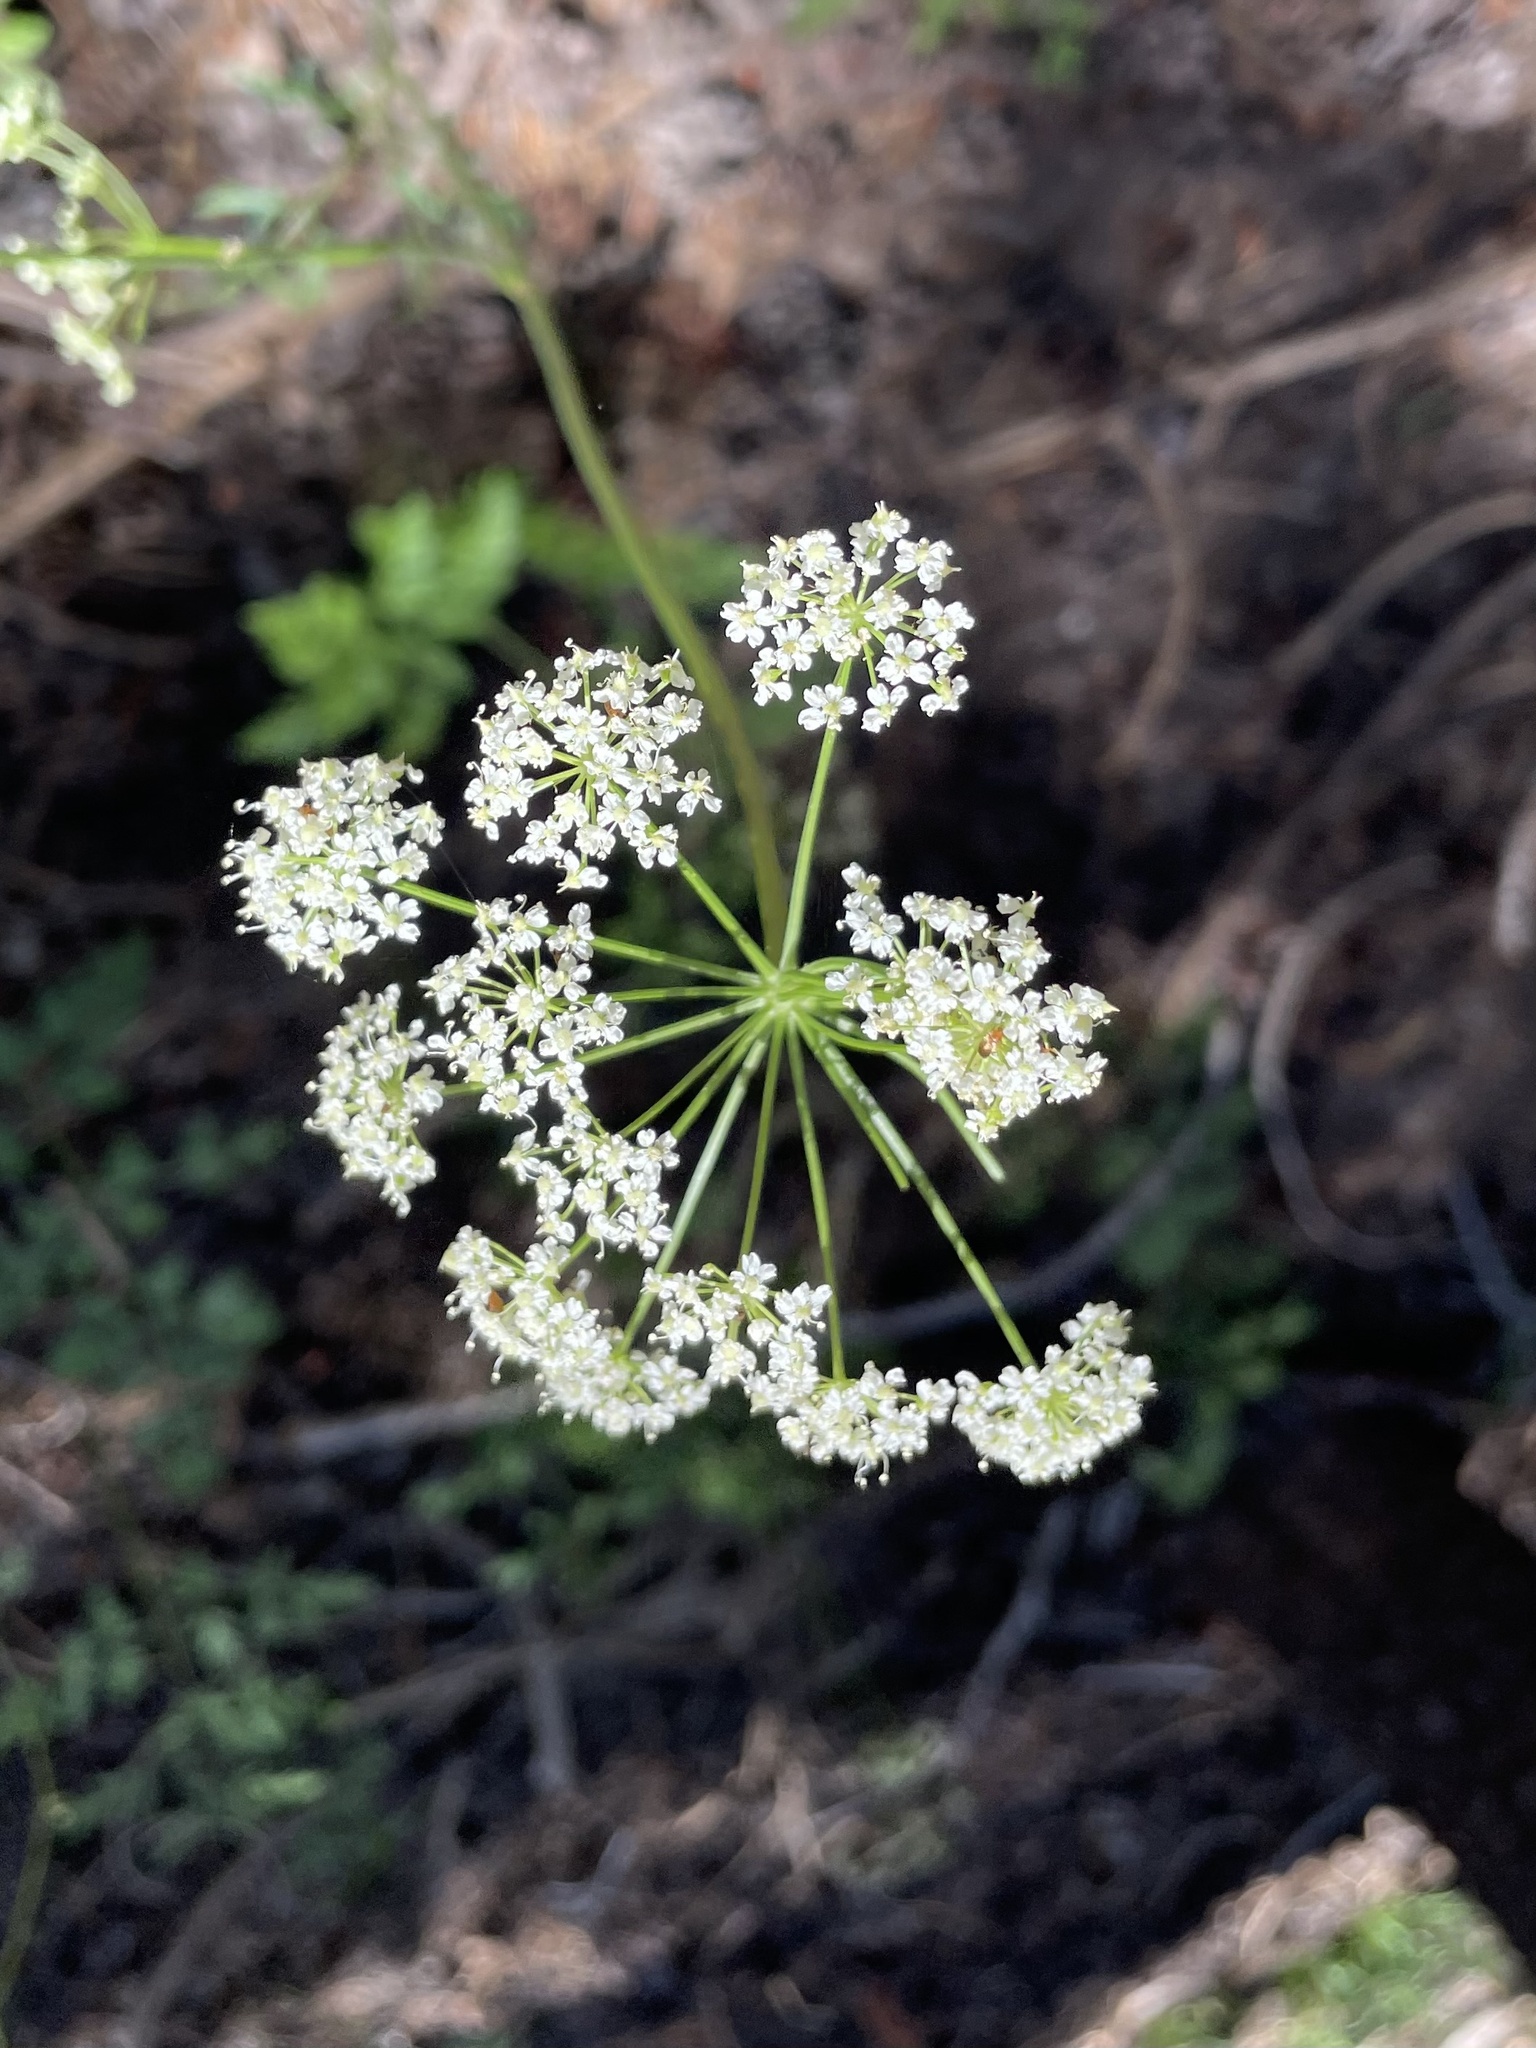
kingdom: Plantae
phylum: Tracheophyta
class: Magnoliopsida
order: Apiales
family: Apiaceae
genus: Ligusticum
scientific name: Ligusticum grayi
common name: Gray's licorice-root
